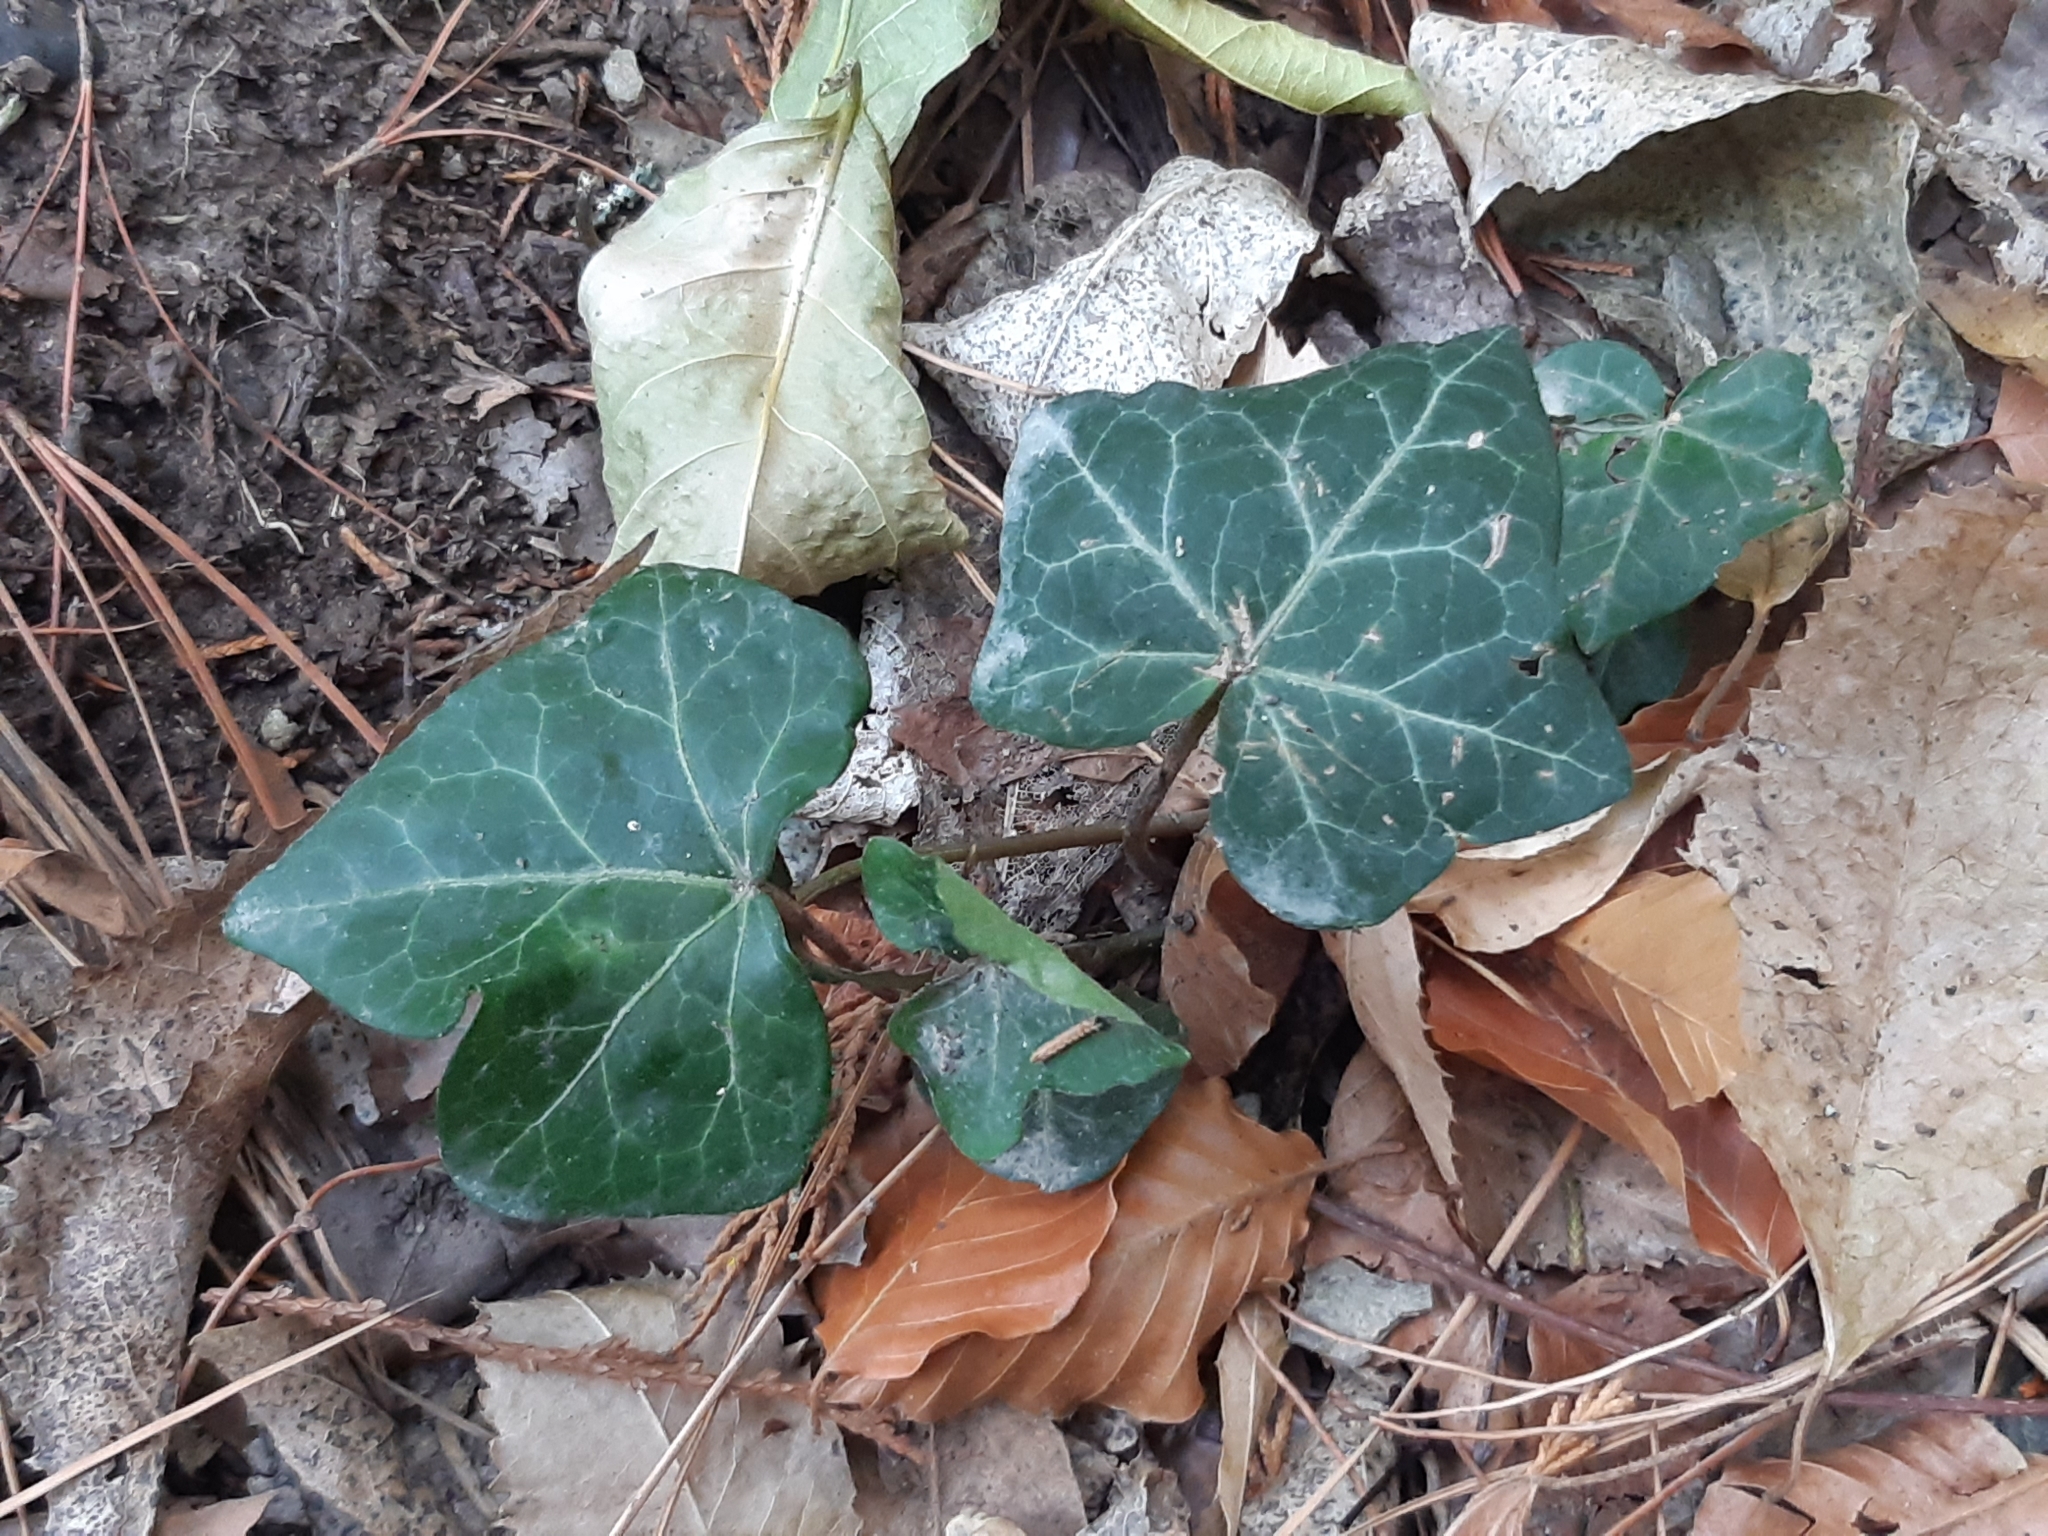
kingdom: Plantae
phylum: Tracheophyta
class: Magnoliopsida
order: Apiales
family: Araliaceae
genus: Hedera
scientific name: Hedera helix
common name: Ivy
